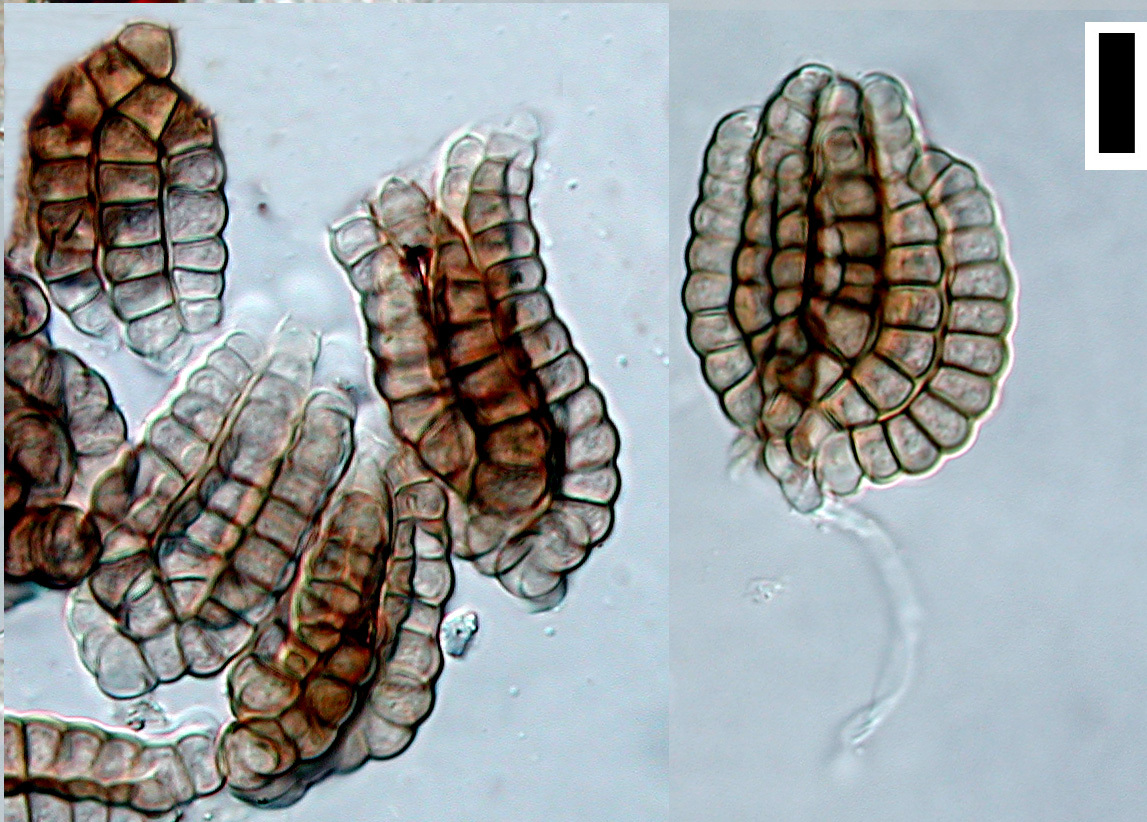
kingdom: Fungi
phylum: Ascomycota
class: Dothideomycetes
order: Pleosporales
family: Dictyosporiaceae
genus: Jalapriya
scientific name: Jalapriya toruloides
